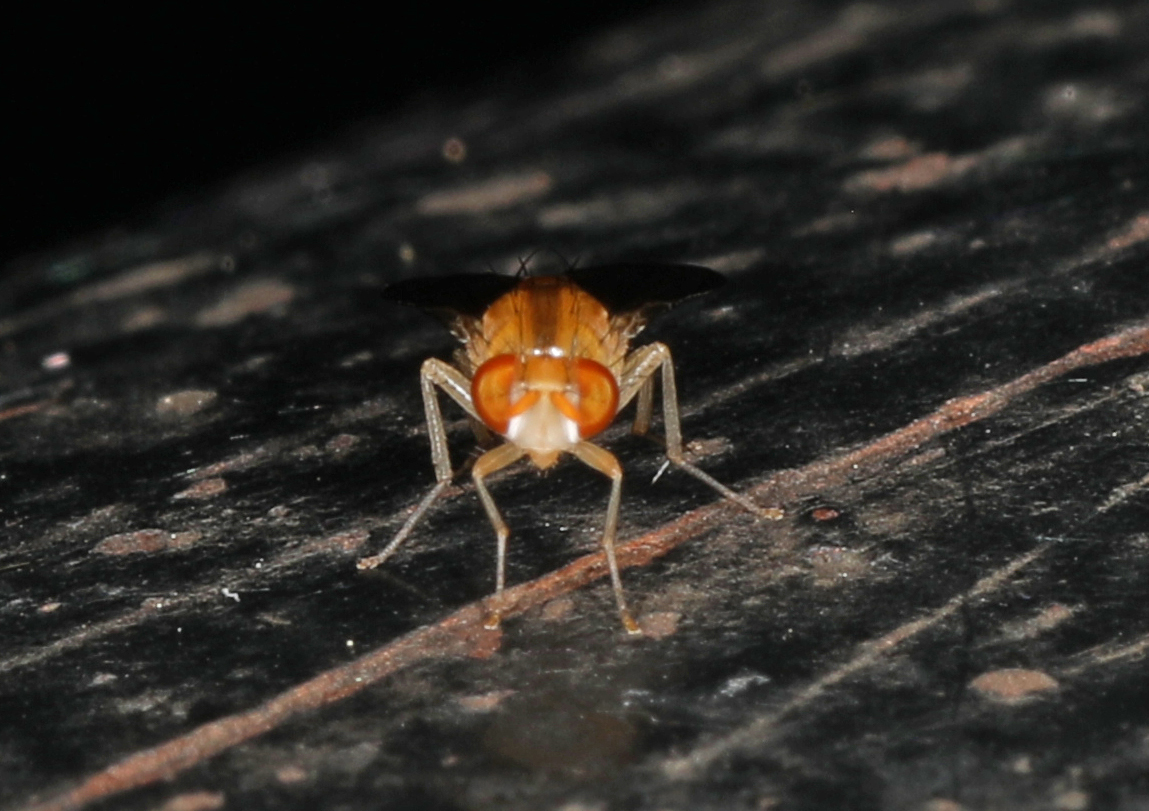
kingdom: Animalia
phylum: Arthropoda
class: Insecta
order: Diptera
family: Lauxaniidae
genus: Neogriphoneura
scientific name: Neogriphoneura sordida
